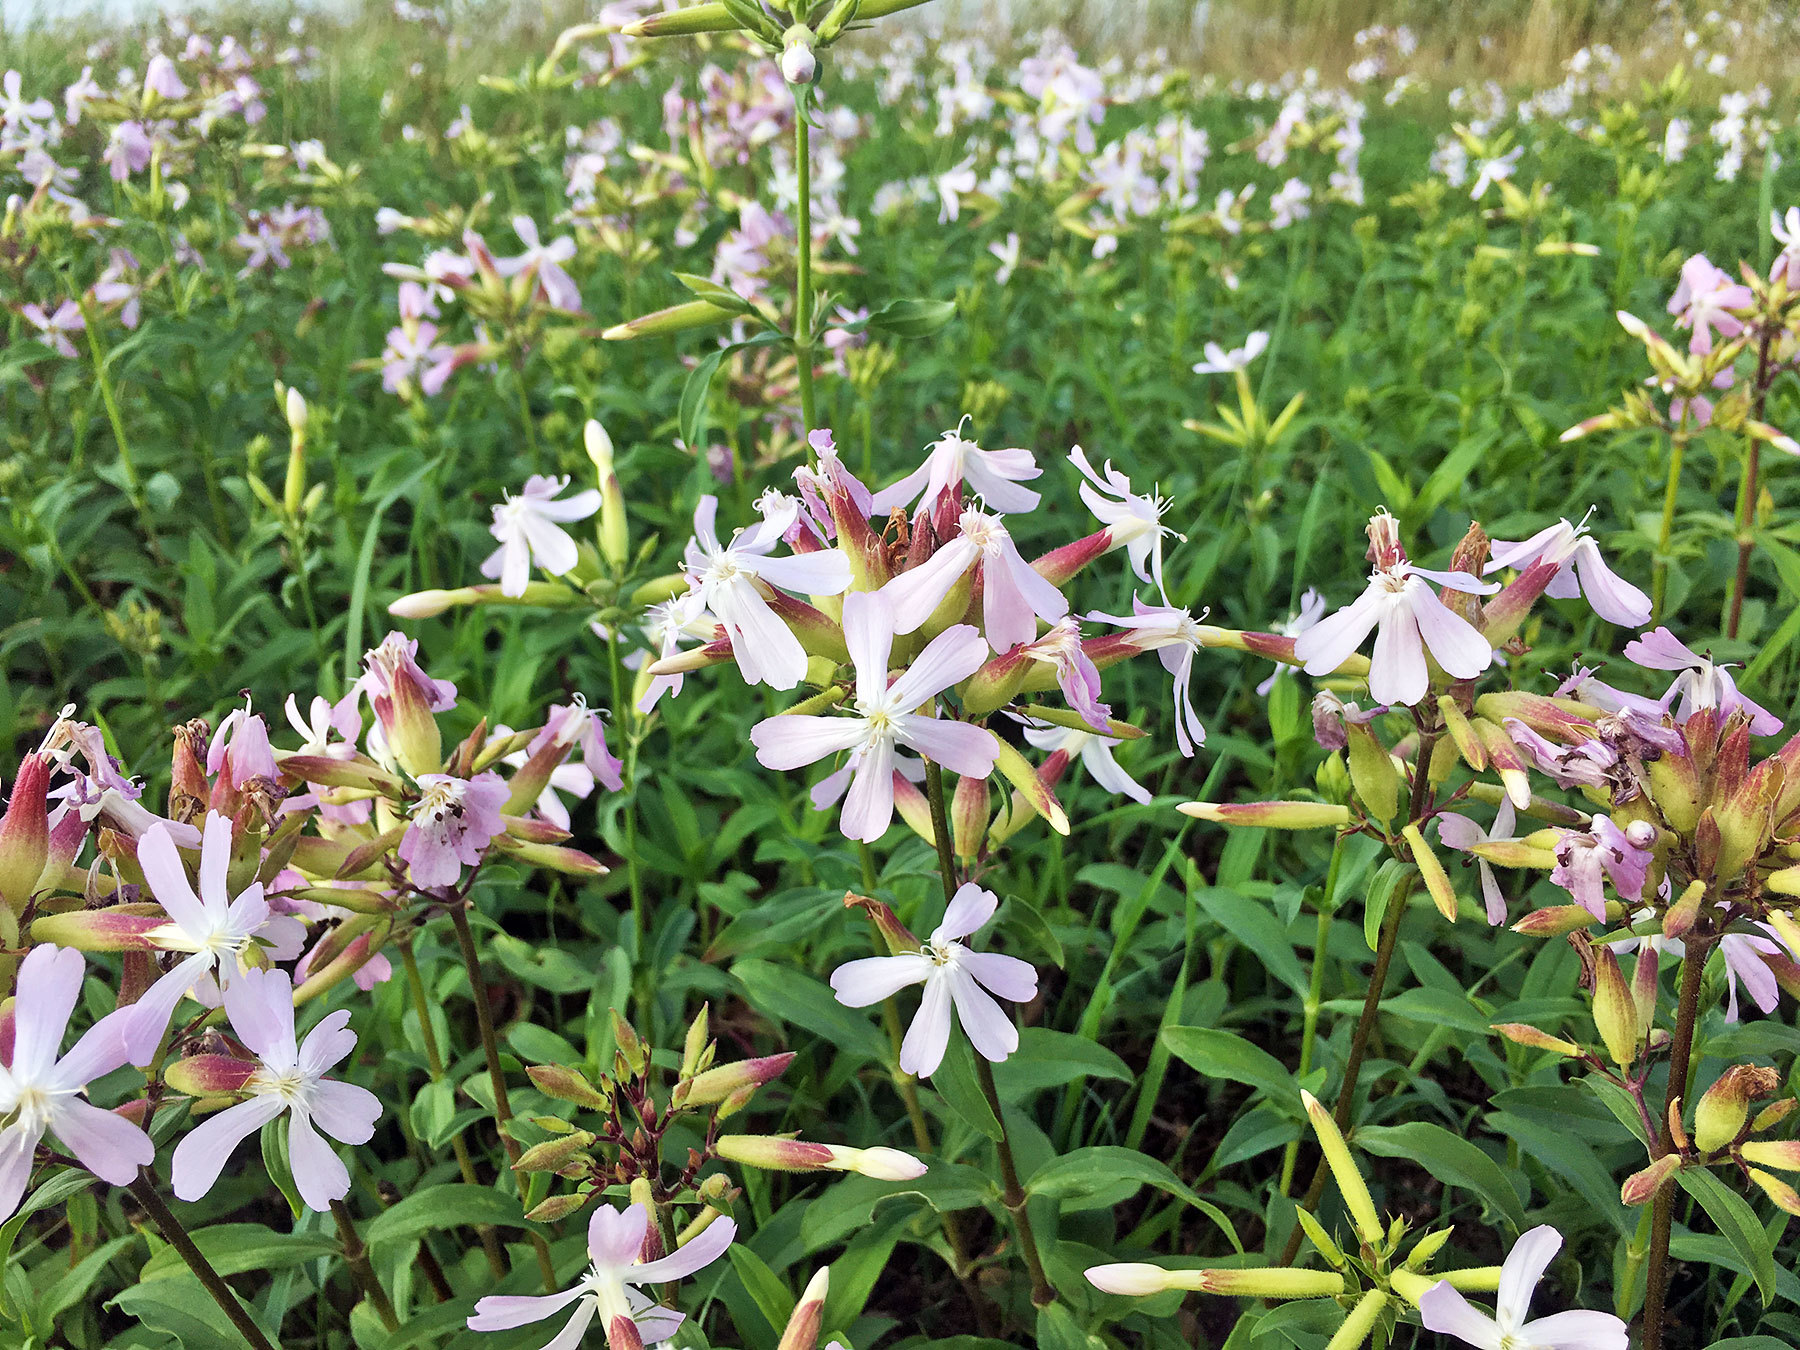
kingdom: Plantae
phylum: Tracheophyta
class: Magnoliopsida
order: Caryophyllales
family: Caryophyllaceae
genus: Saponaria
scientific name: Saponaria officinalis
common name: Soapwort
